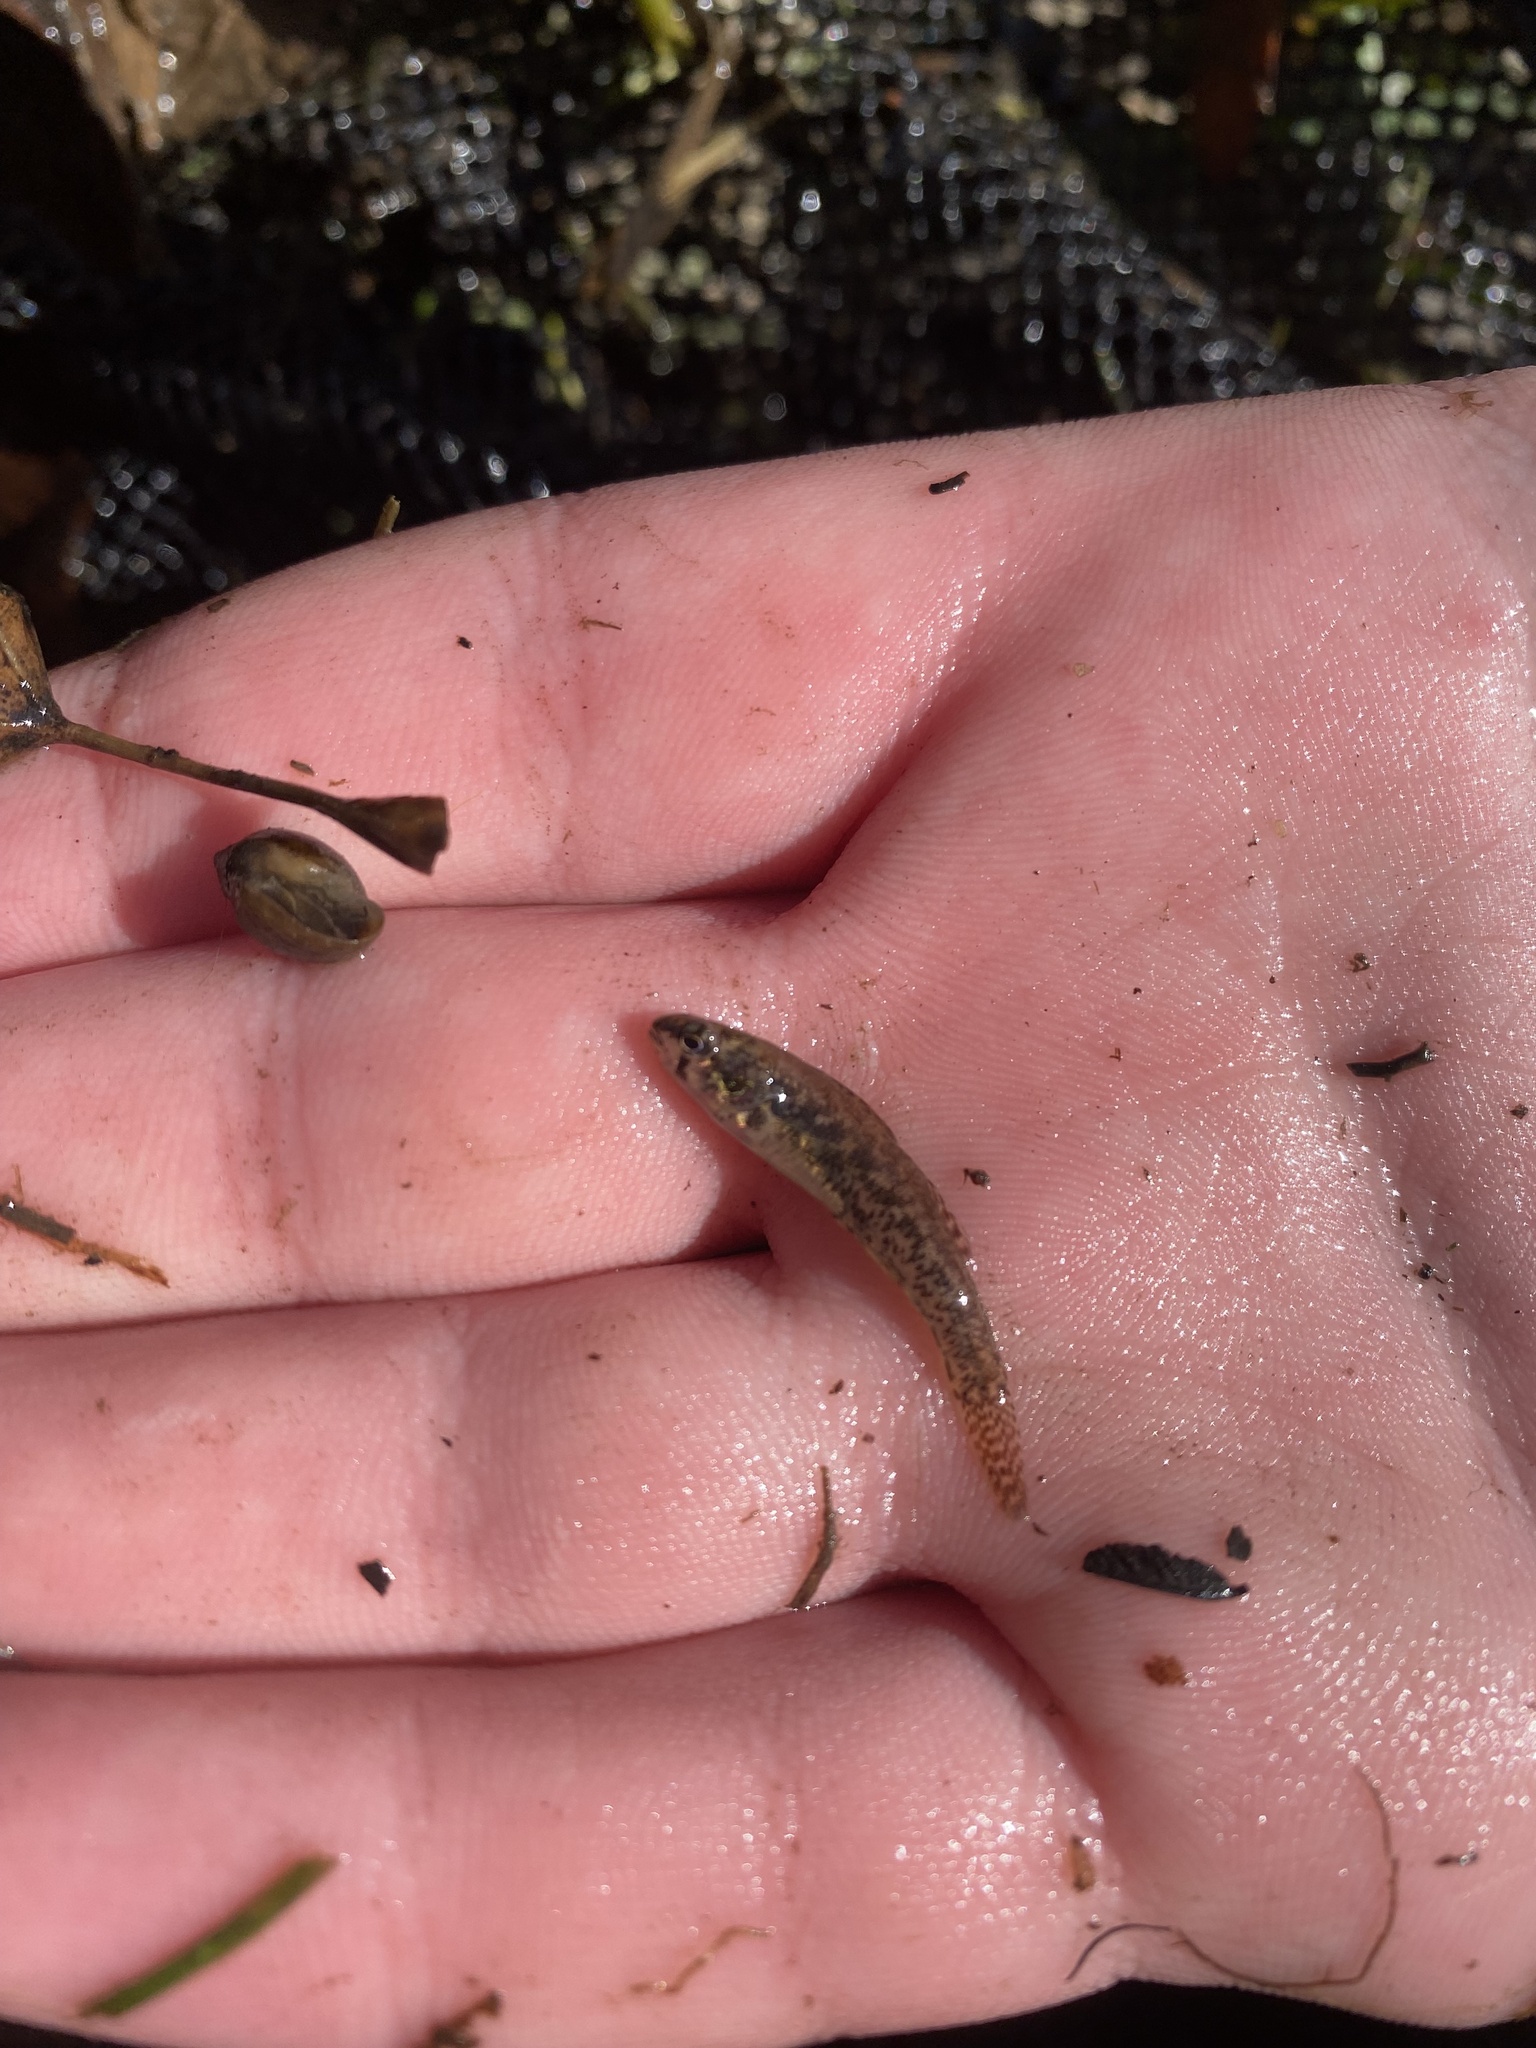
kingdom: Animalia
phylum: Chordata
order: Perciformes
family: Percidae
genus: Etheostoma
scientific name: Etheostoma microperca
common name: Least darter
